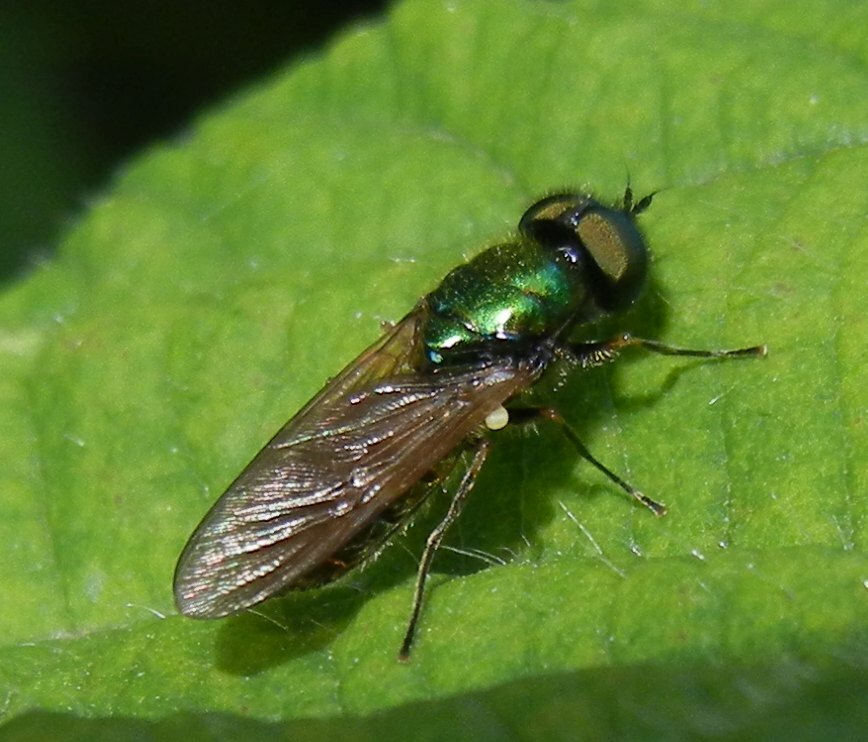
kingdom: Animalia
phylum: Arthropoda
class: Insecta
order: Diptera
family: Stratiomyidae
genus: Chloromyia
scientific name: Chloromyia formosa
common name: Soldier fly
